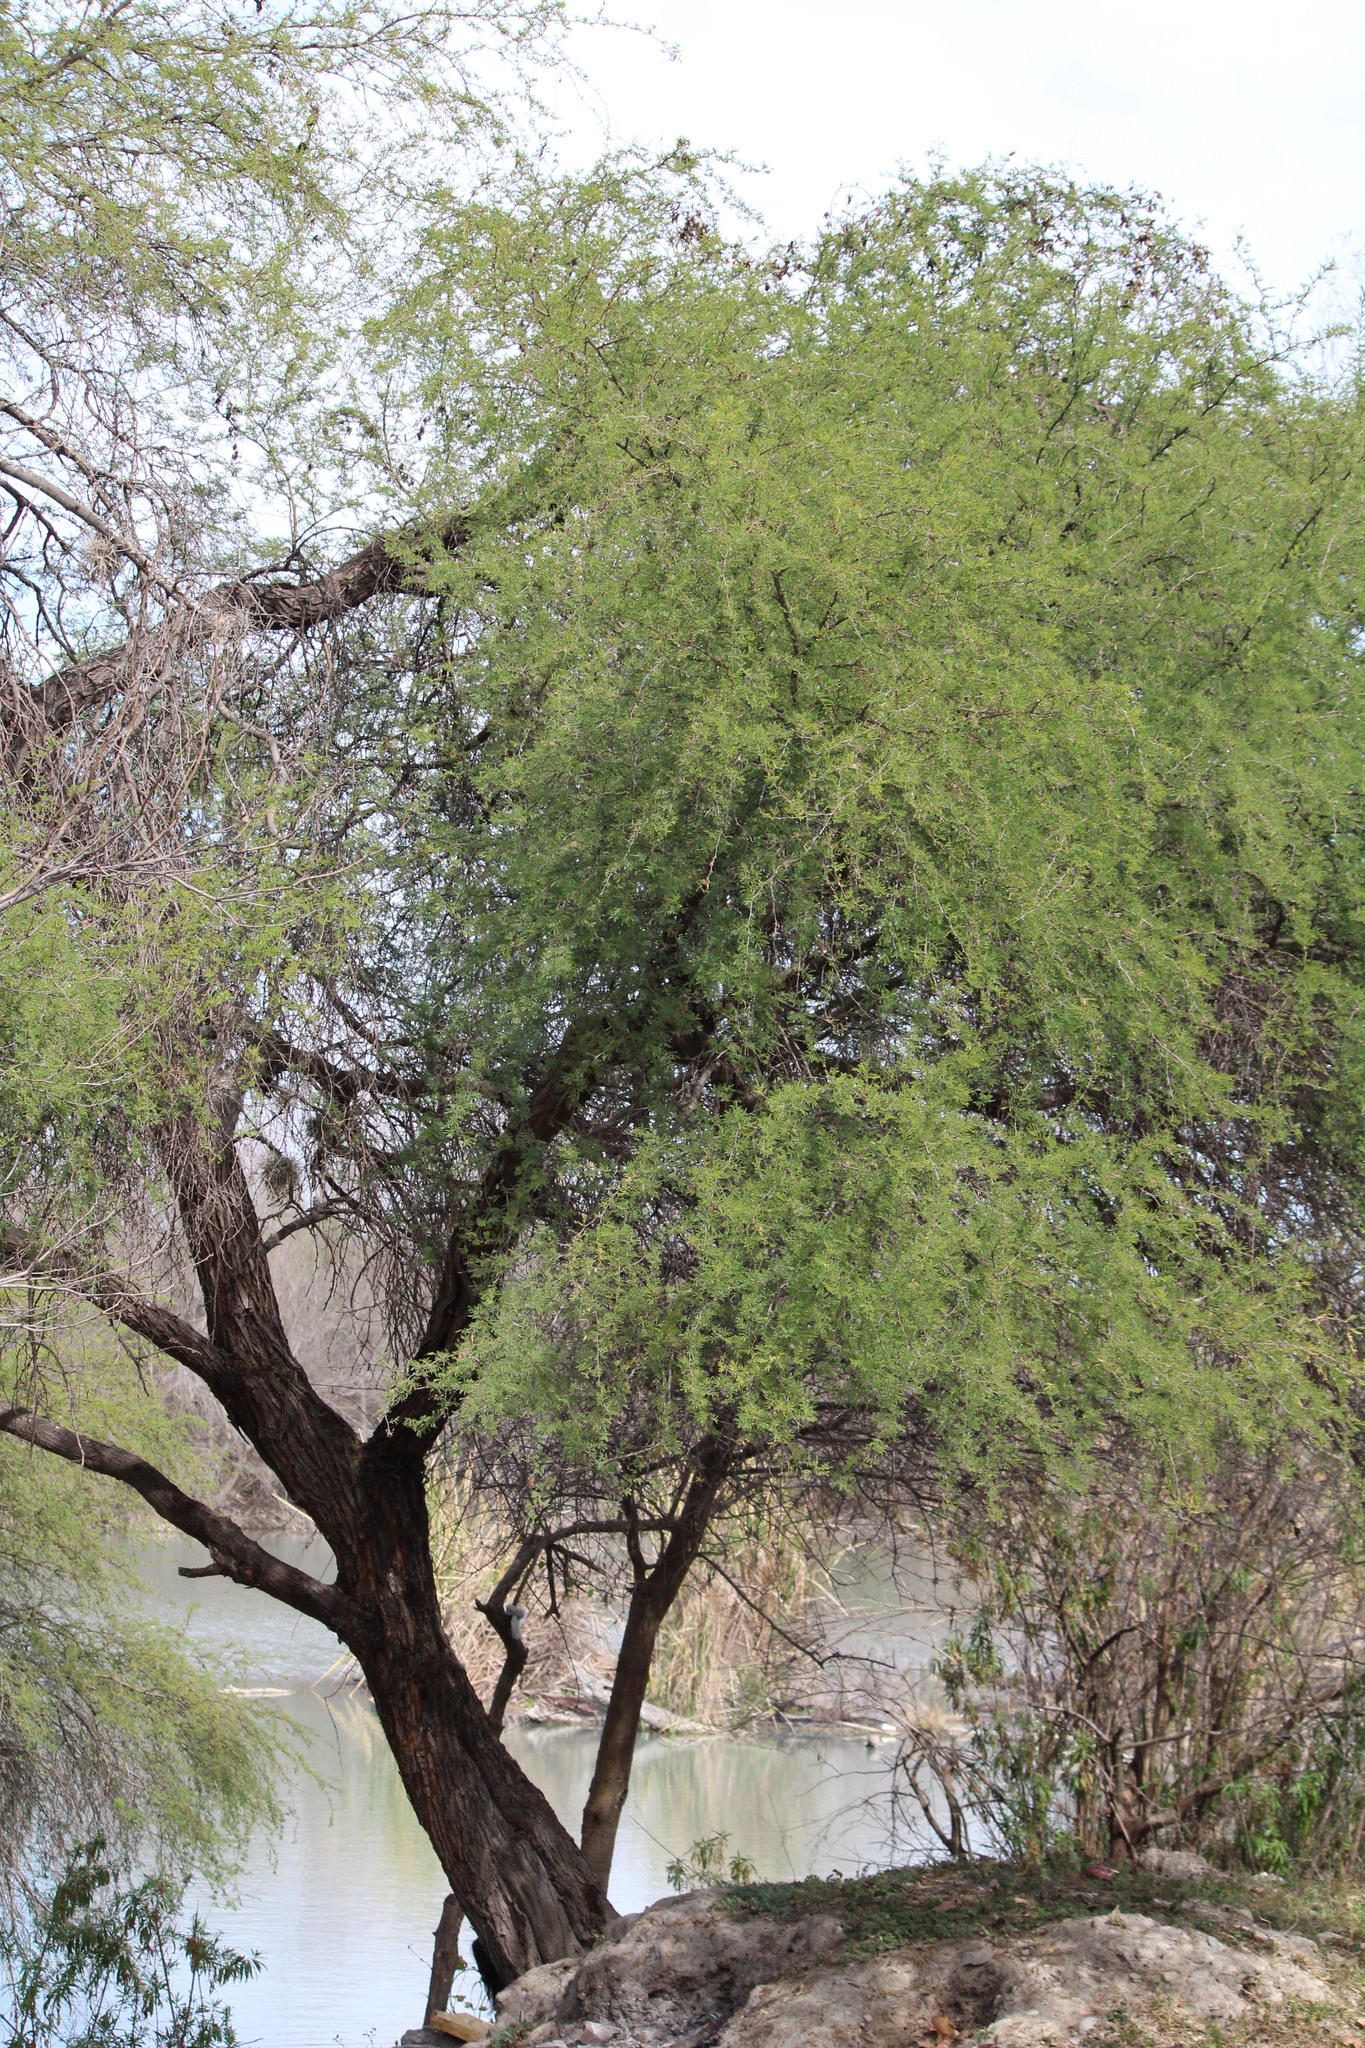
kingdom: Plantae
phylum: Tracheophyta
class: Magnoliopsida
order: Fabales
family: Fabaceae
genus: Vachellia
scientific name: Vachellia farnesiana
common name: Sweet acacia
